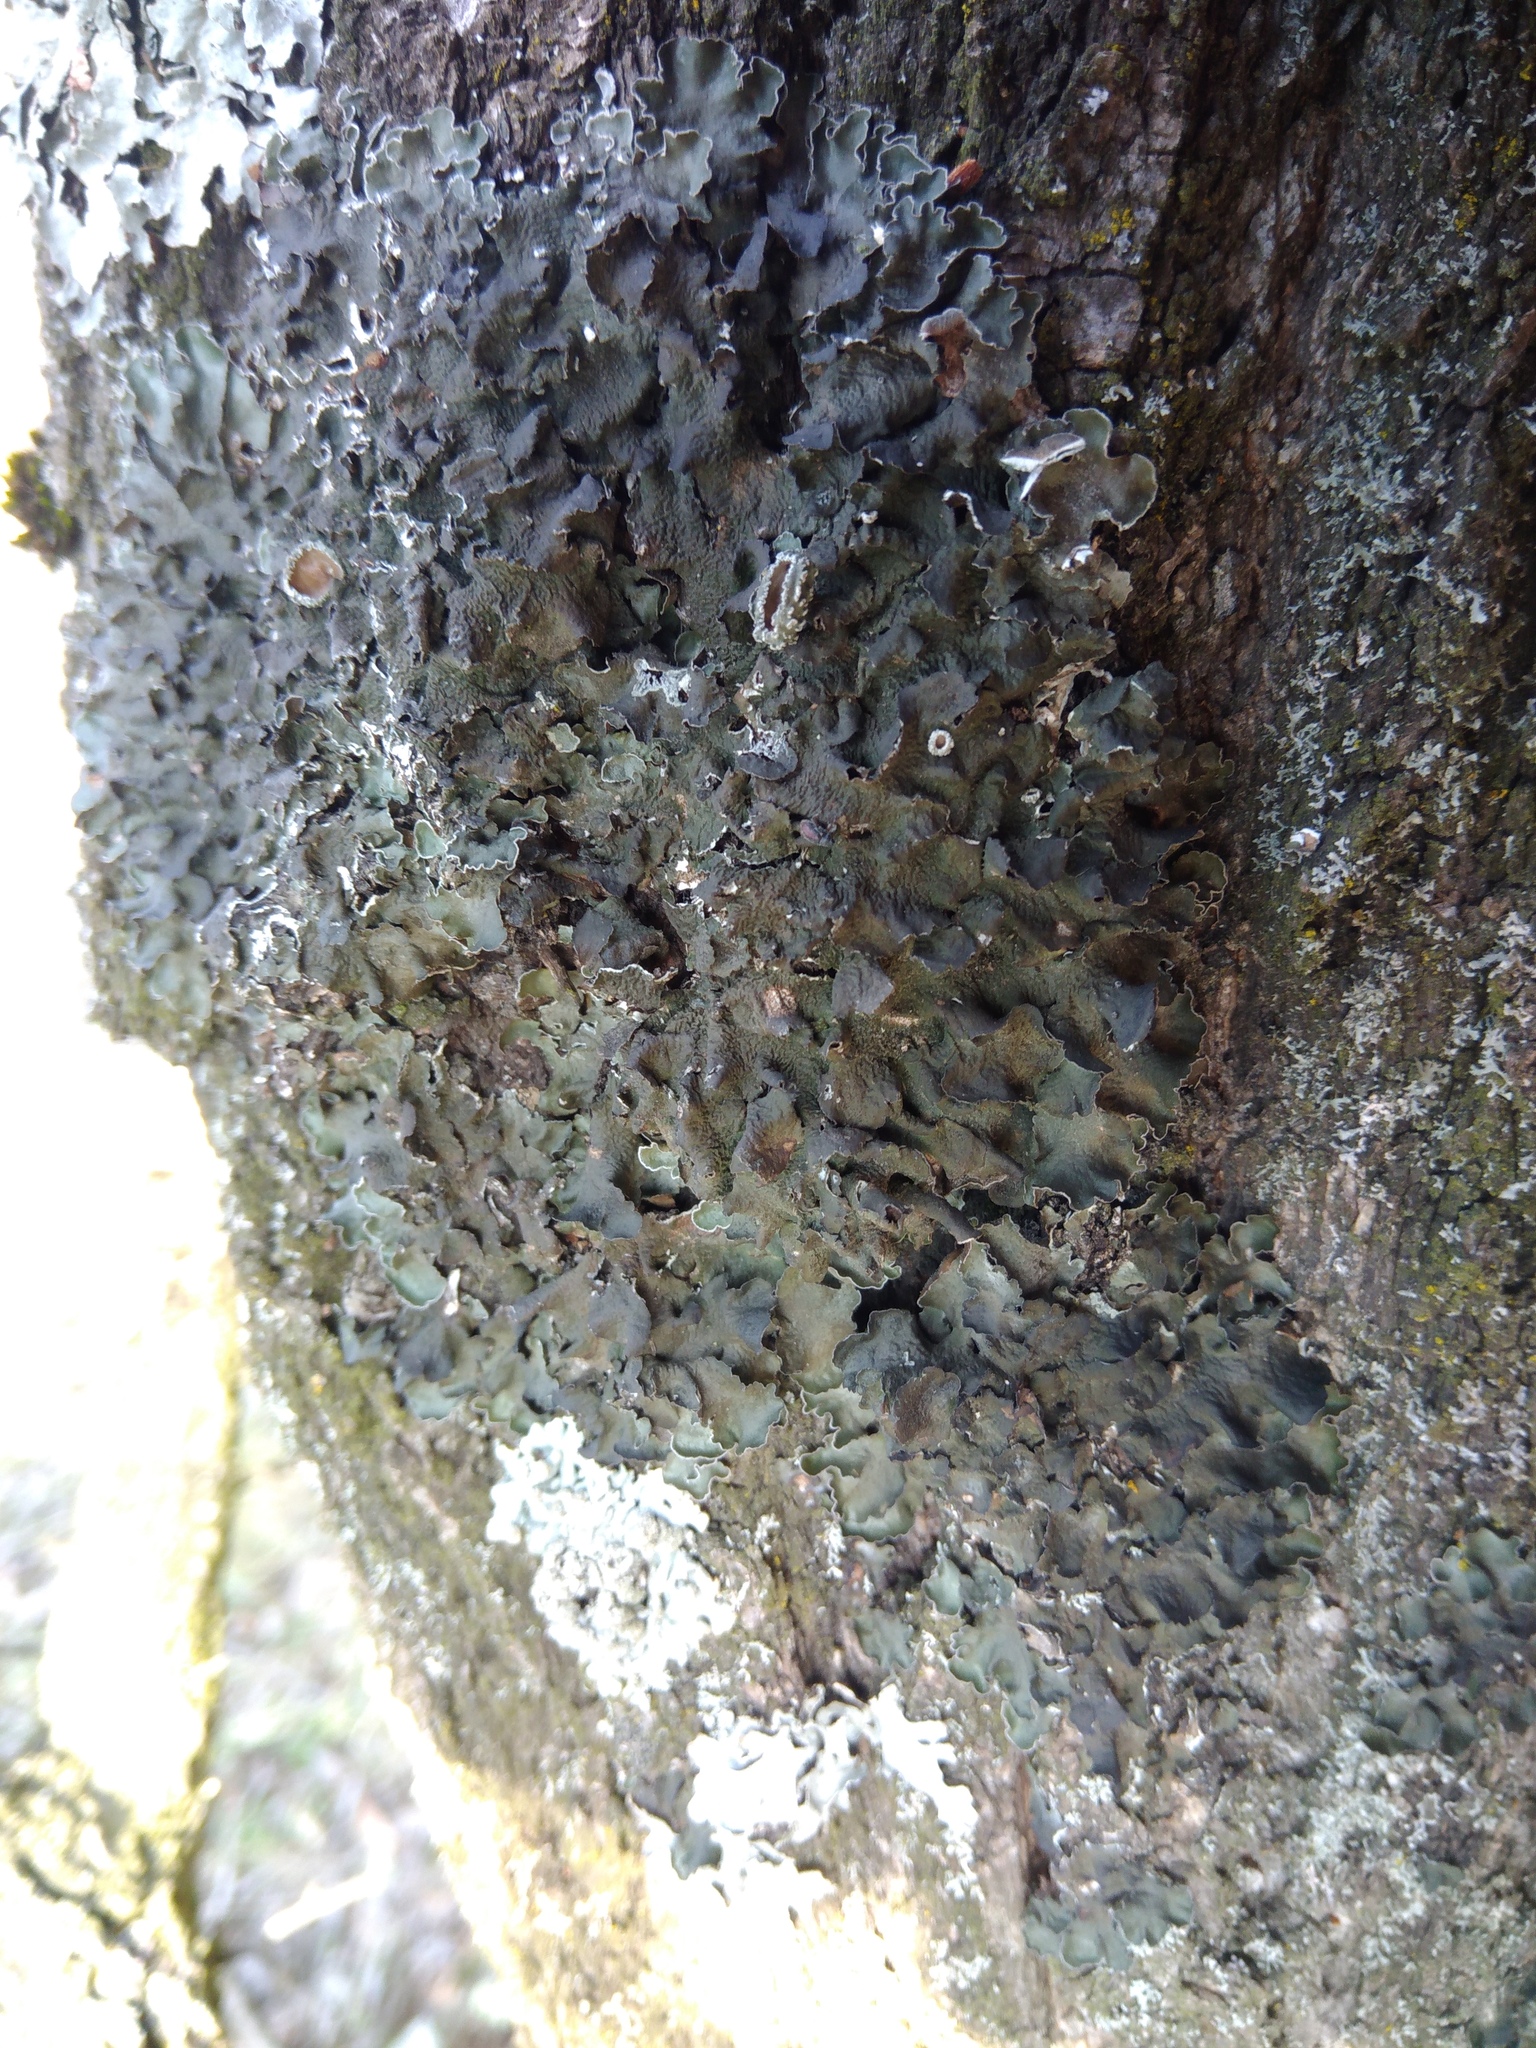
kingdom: Fungi
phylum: Ascomycota
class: Lecanoromycetes
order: Lecanorales
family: Parmeliaceae
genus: Pleurosticta
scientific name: Pleurosticta acetabulum
